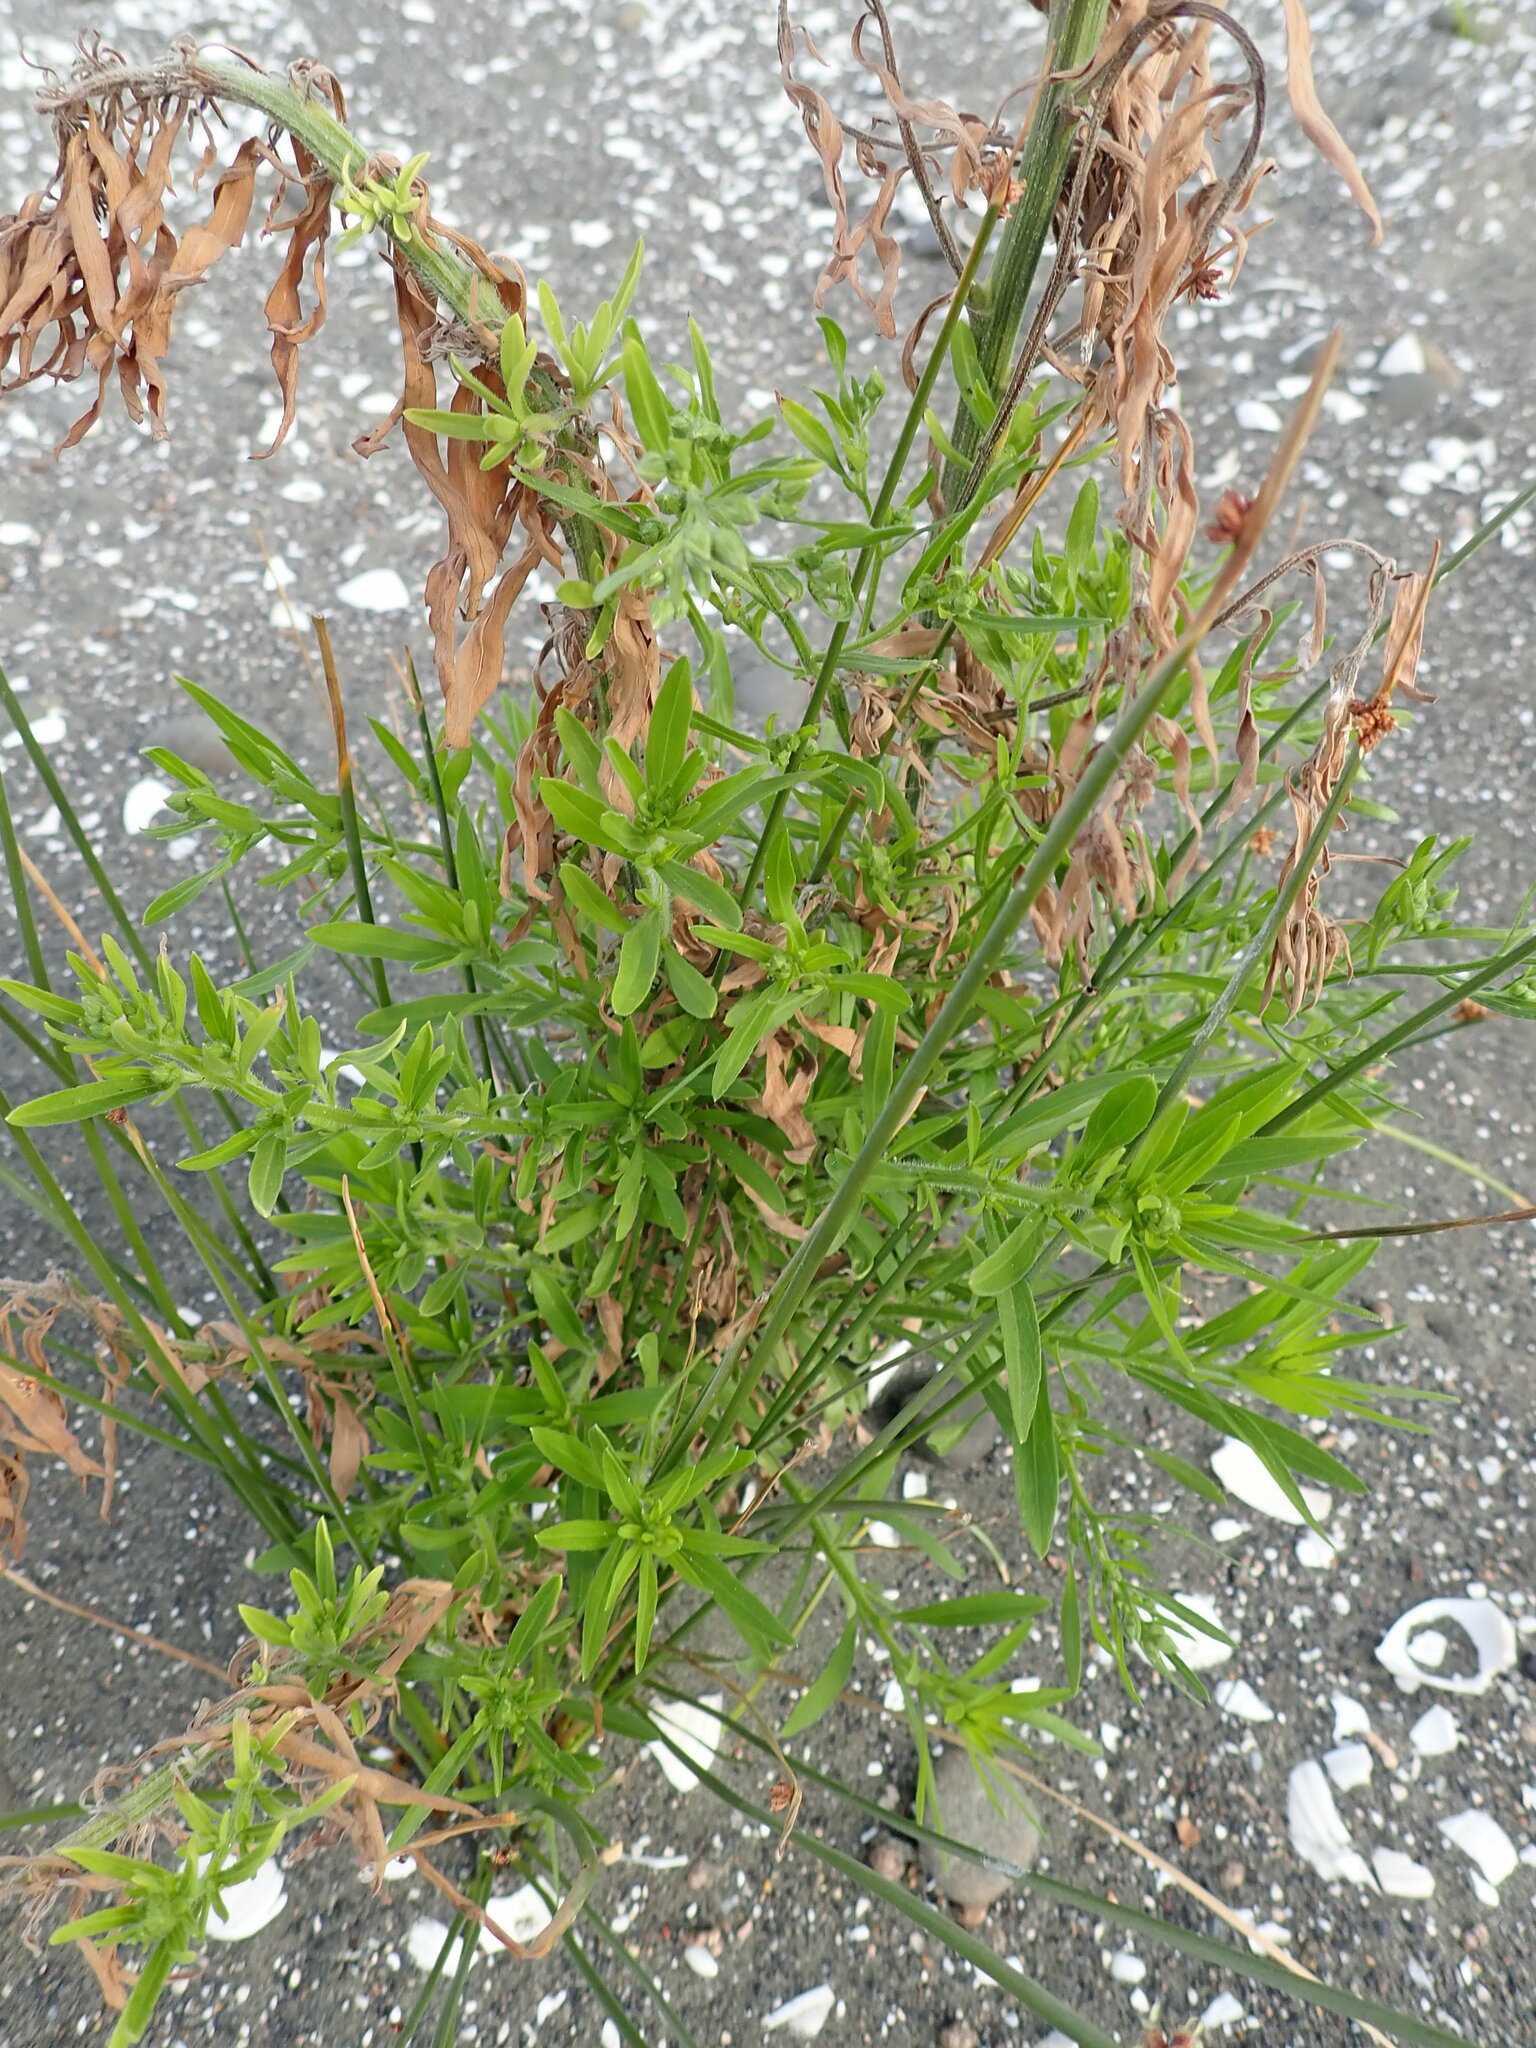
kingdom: Plantae
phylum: Tracheophyta
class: Liliopsida
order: Poales
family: Cyperaceae
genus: Ficinia
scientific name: Ficinia nodosa
